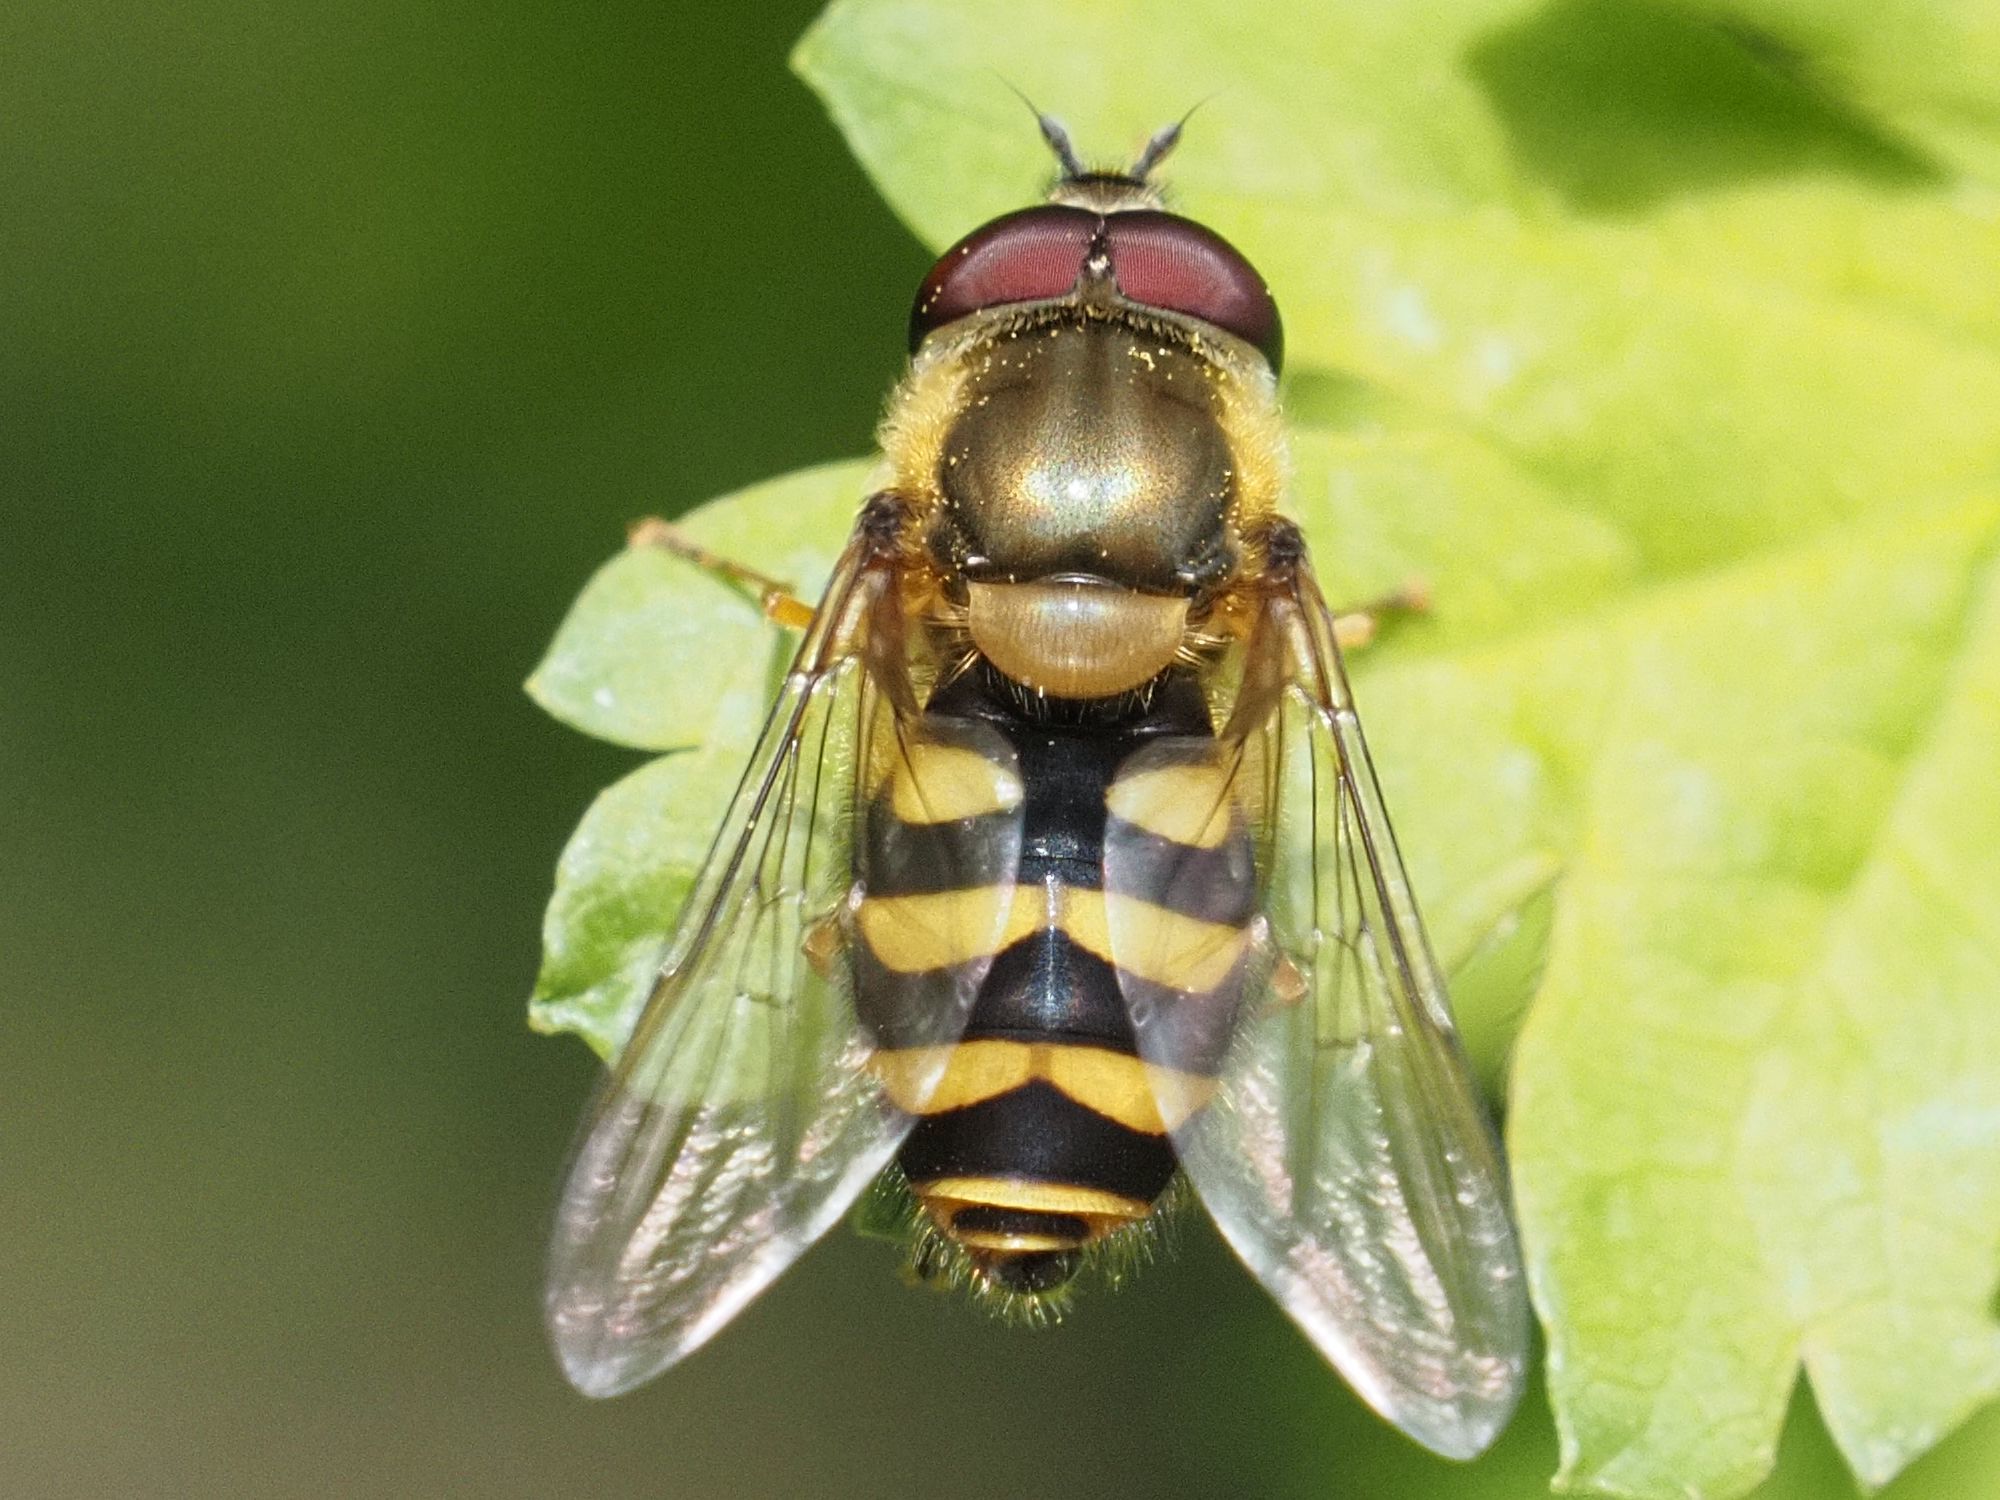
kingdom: Animalia
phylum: Arthropoda
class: Insecta
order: Diptera
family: Syrphidae
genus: Syrphus
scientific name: Syrphus
